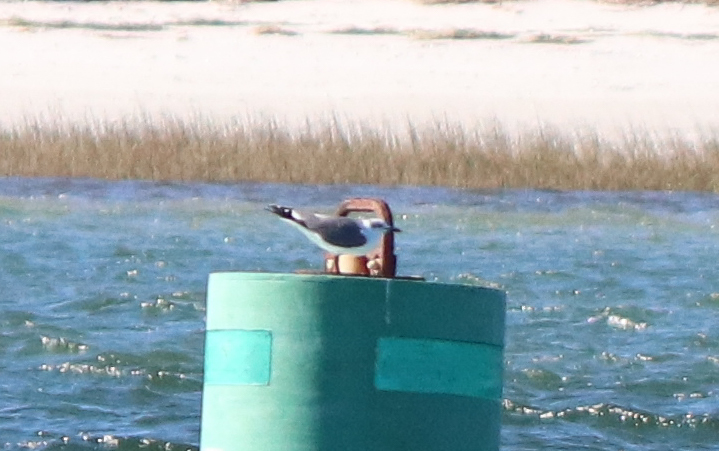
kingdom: Animalia
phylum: Chordata
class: Aves
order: Charadriiformes
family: Laridae
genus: Leucophaeus
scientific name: Leucophaeus atricilla
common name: Laughing gull
